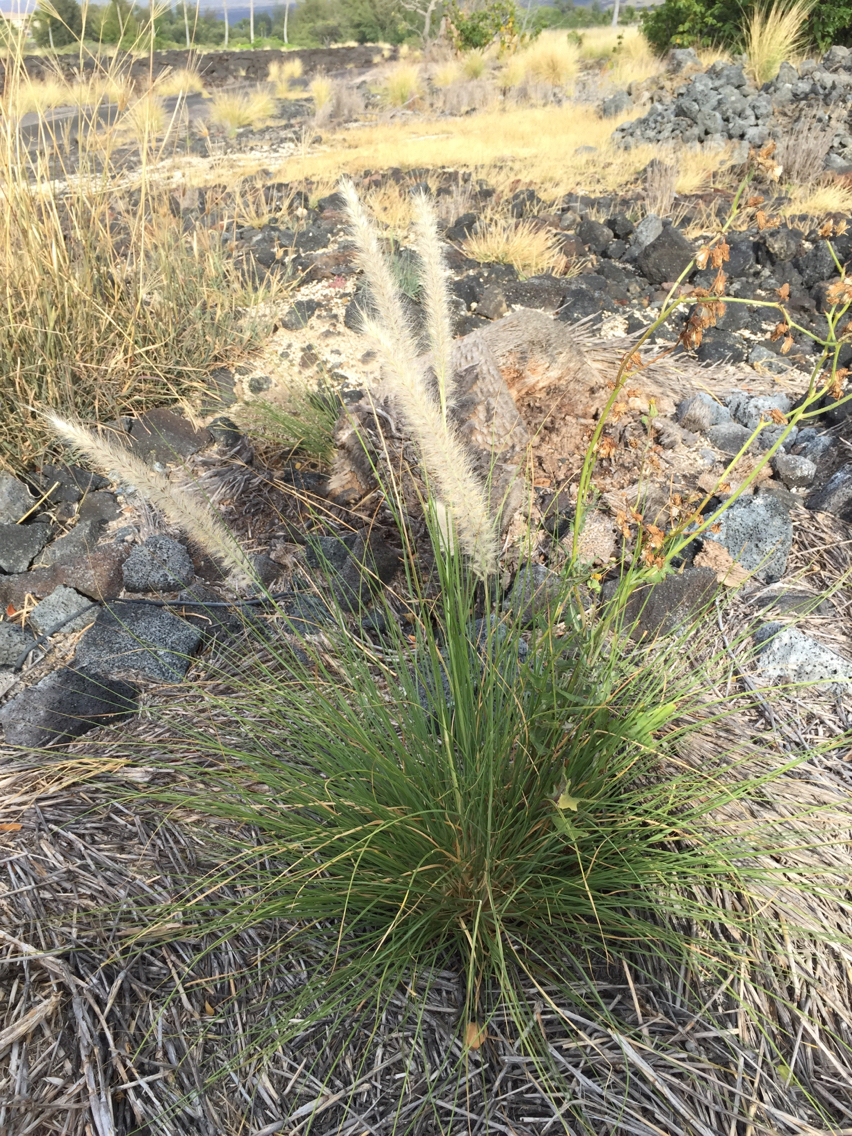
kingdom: Plantae
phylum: Tracheophyta
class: Liliopsida
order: Poales
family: Poaceae
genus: Cenchrus
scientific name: Cenchrus setaceus
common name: Crimson fountaingrass
